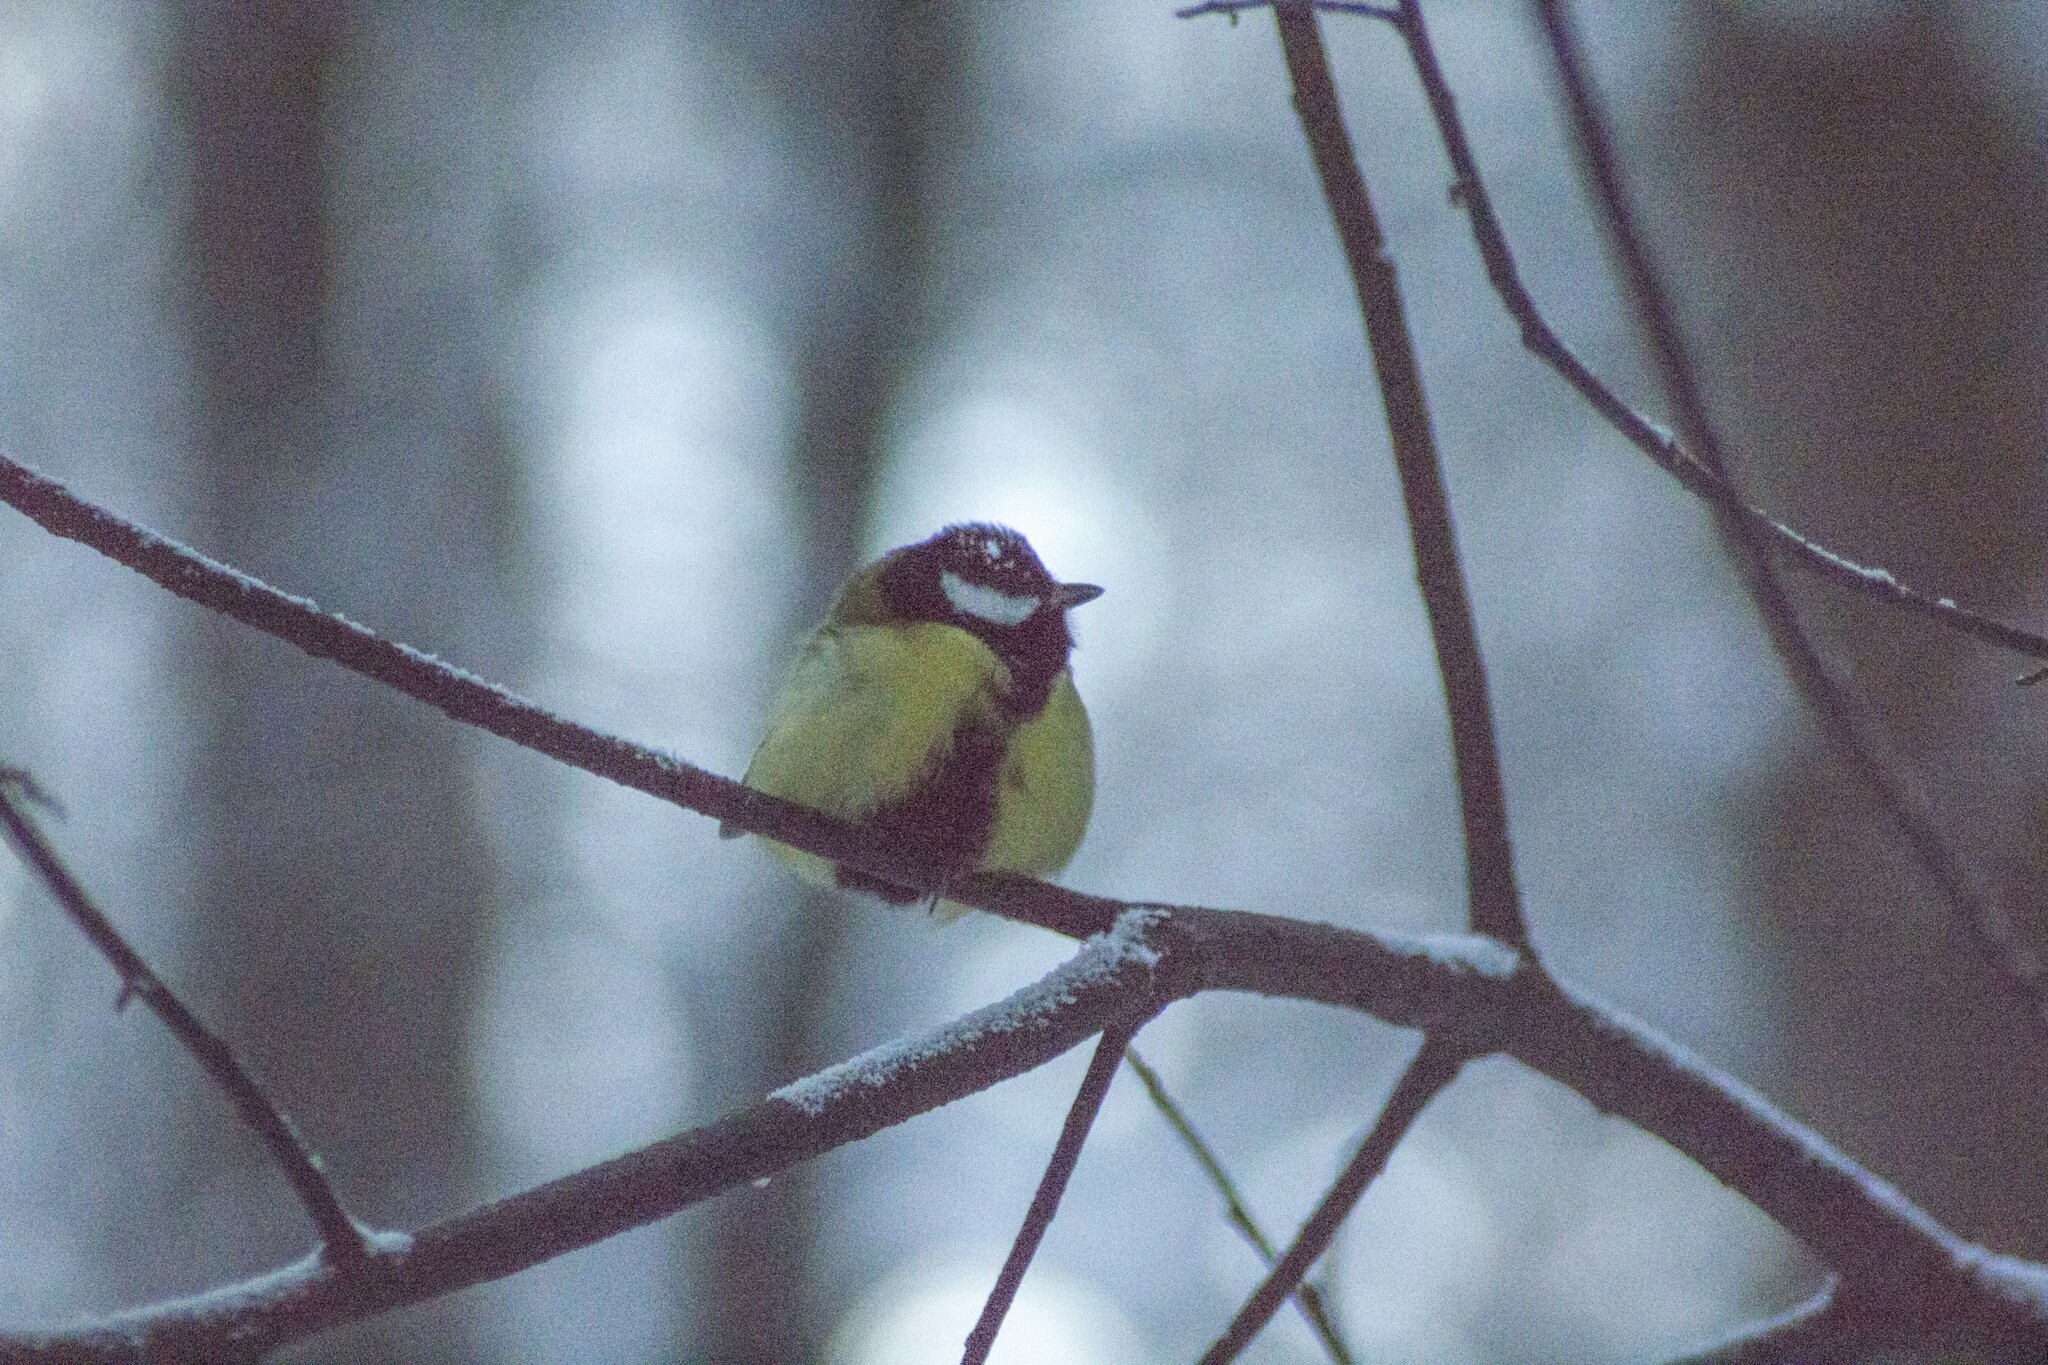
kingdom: Animalia
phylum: Chordata
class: Aves
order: Passeriformes
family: Paridae
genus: Parus
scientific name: Parus major
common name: Great tit
